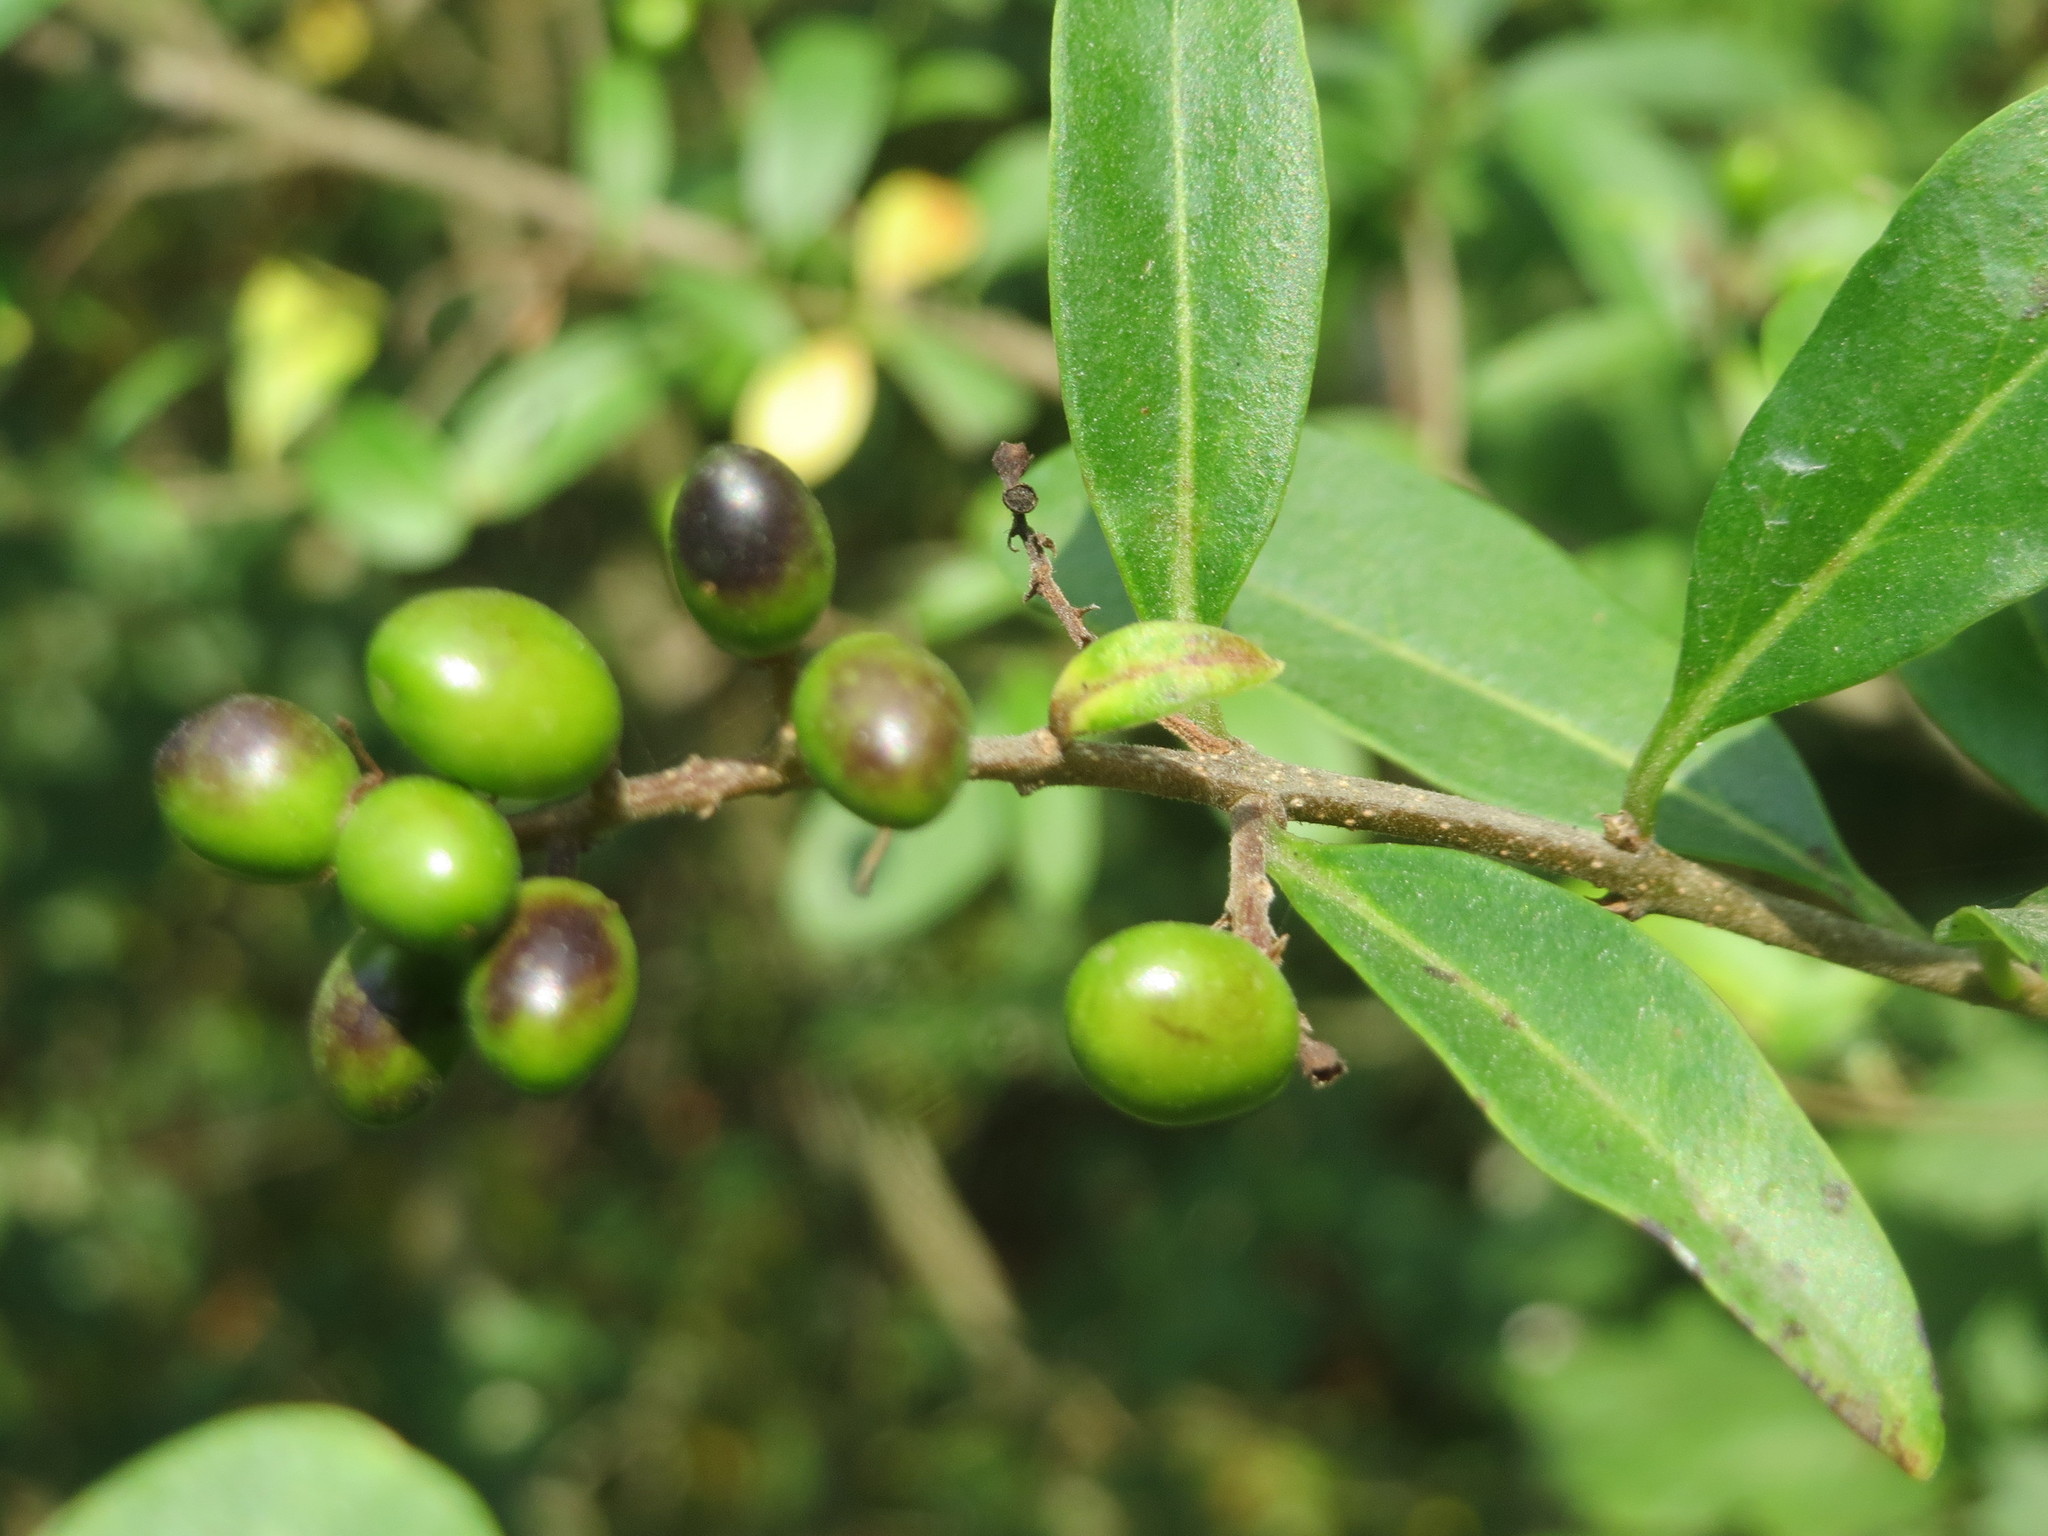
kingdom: Plantae
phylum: Tracheophyta
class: Magnoliopsida
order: Lamiales
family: Oleaceae
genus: Ligustrum
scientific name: Ligustrum vulgare
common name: Wild privet
